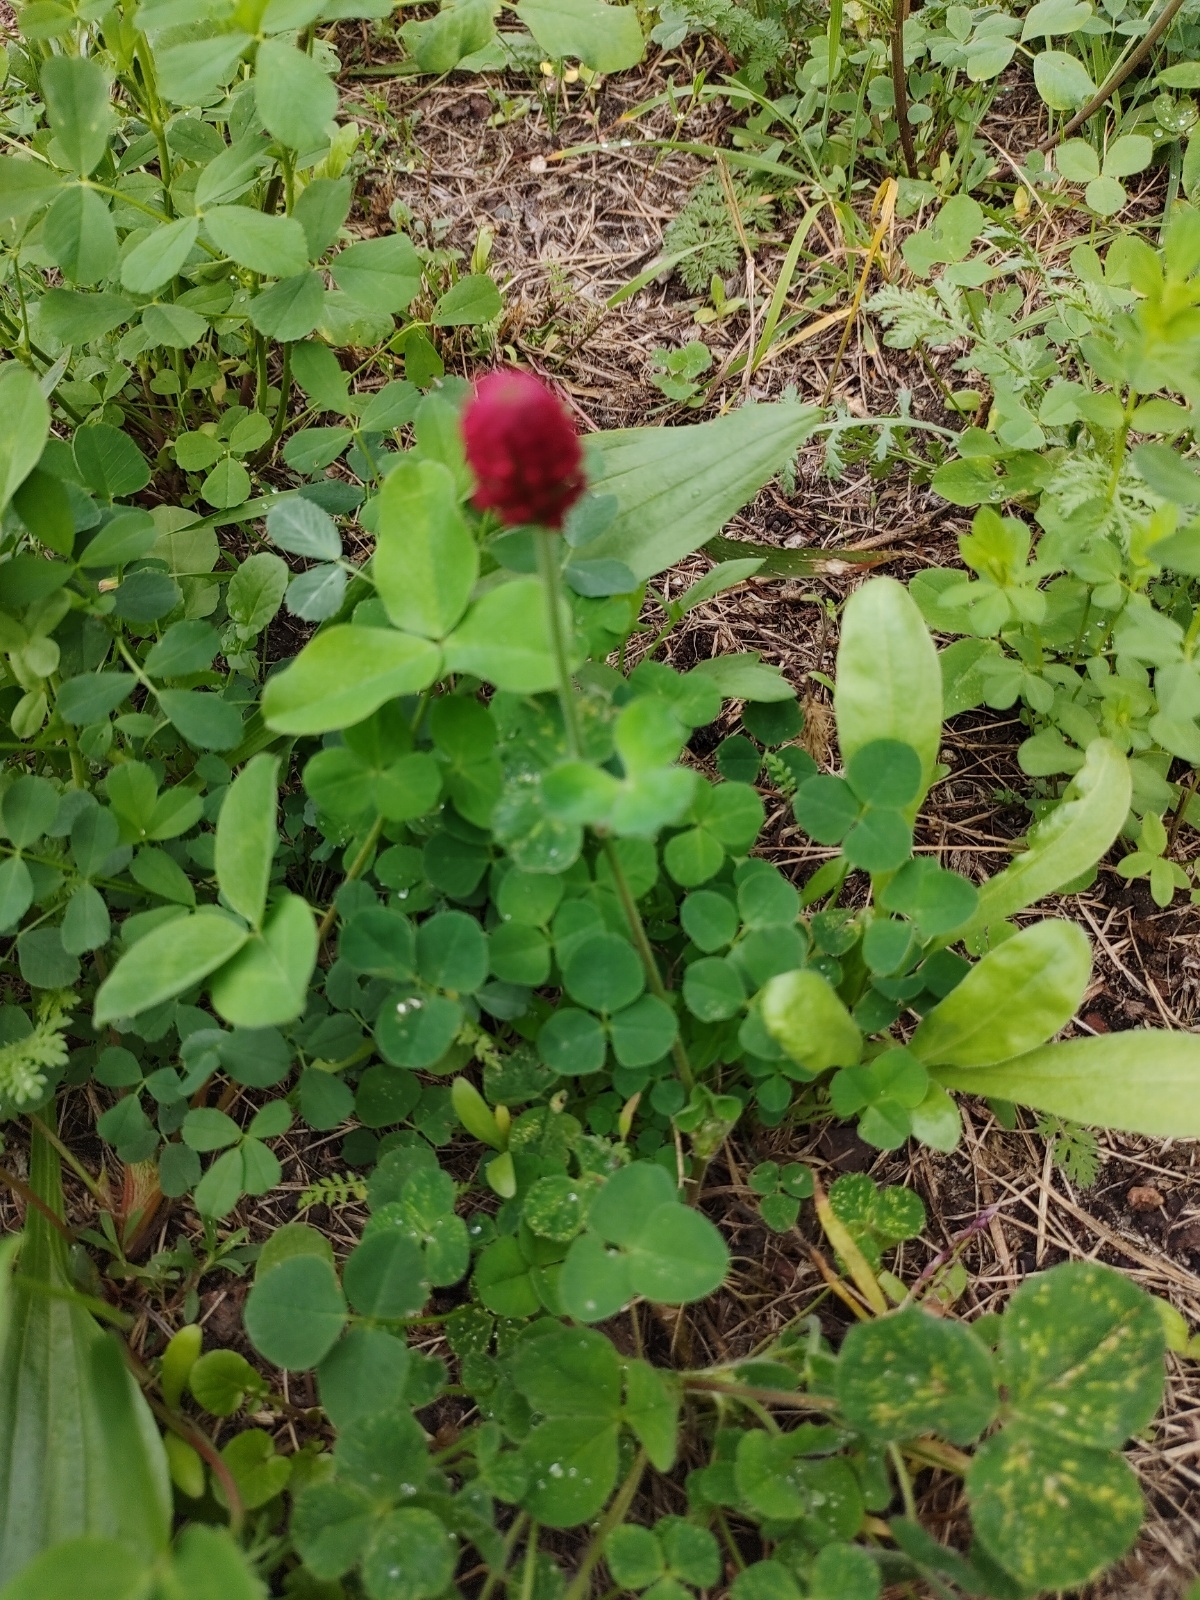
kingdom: Plantae
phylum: Tracheophyta
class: Magnoliopsida
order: Fabales
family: Fabaceae
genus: Trifolium
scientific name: Trifolium incarnatum
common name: Crimson clover
